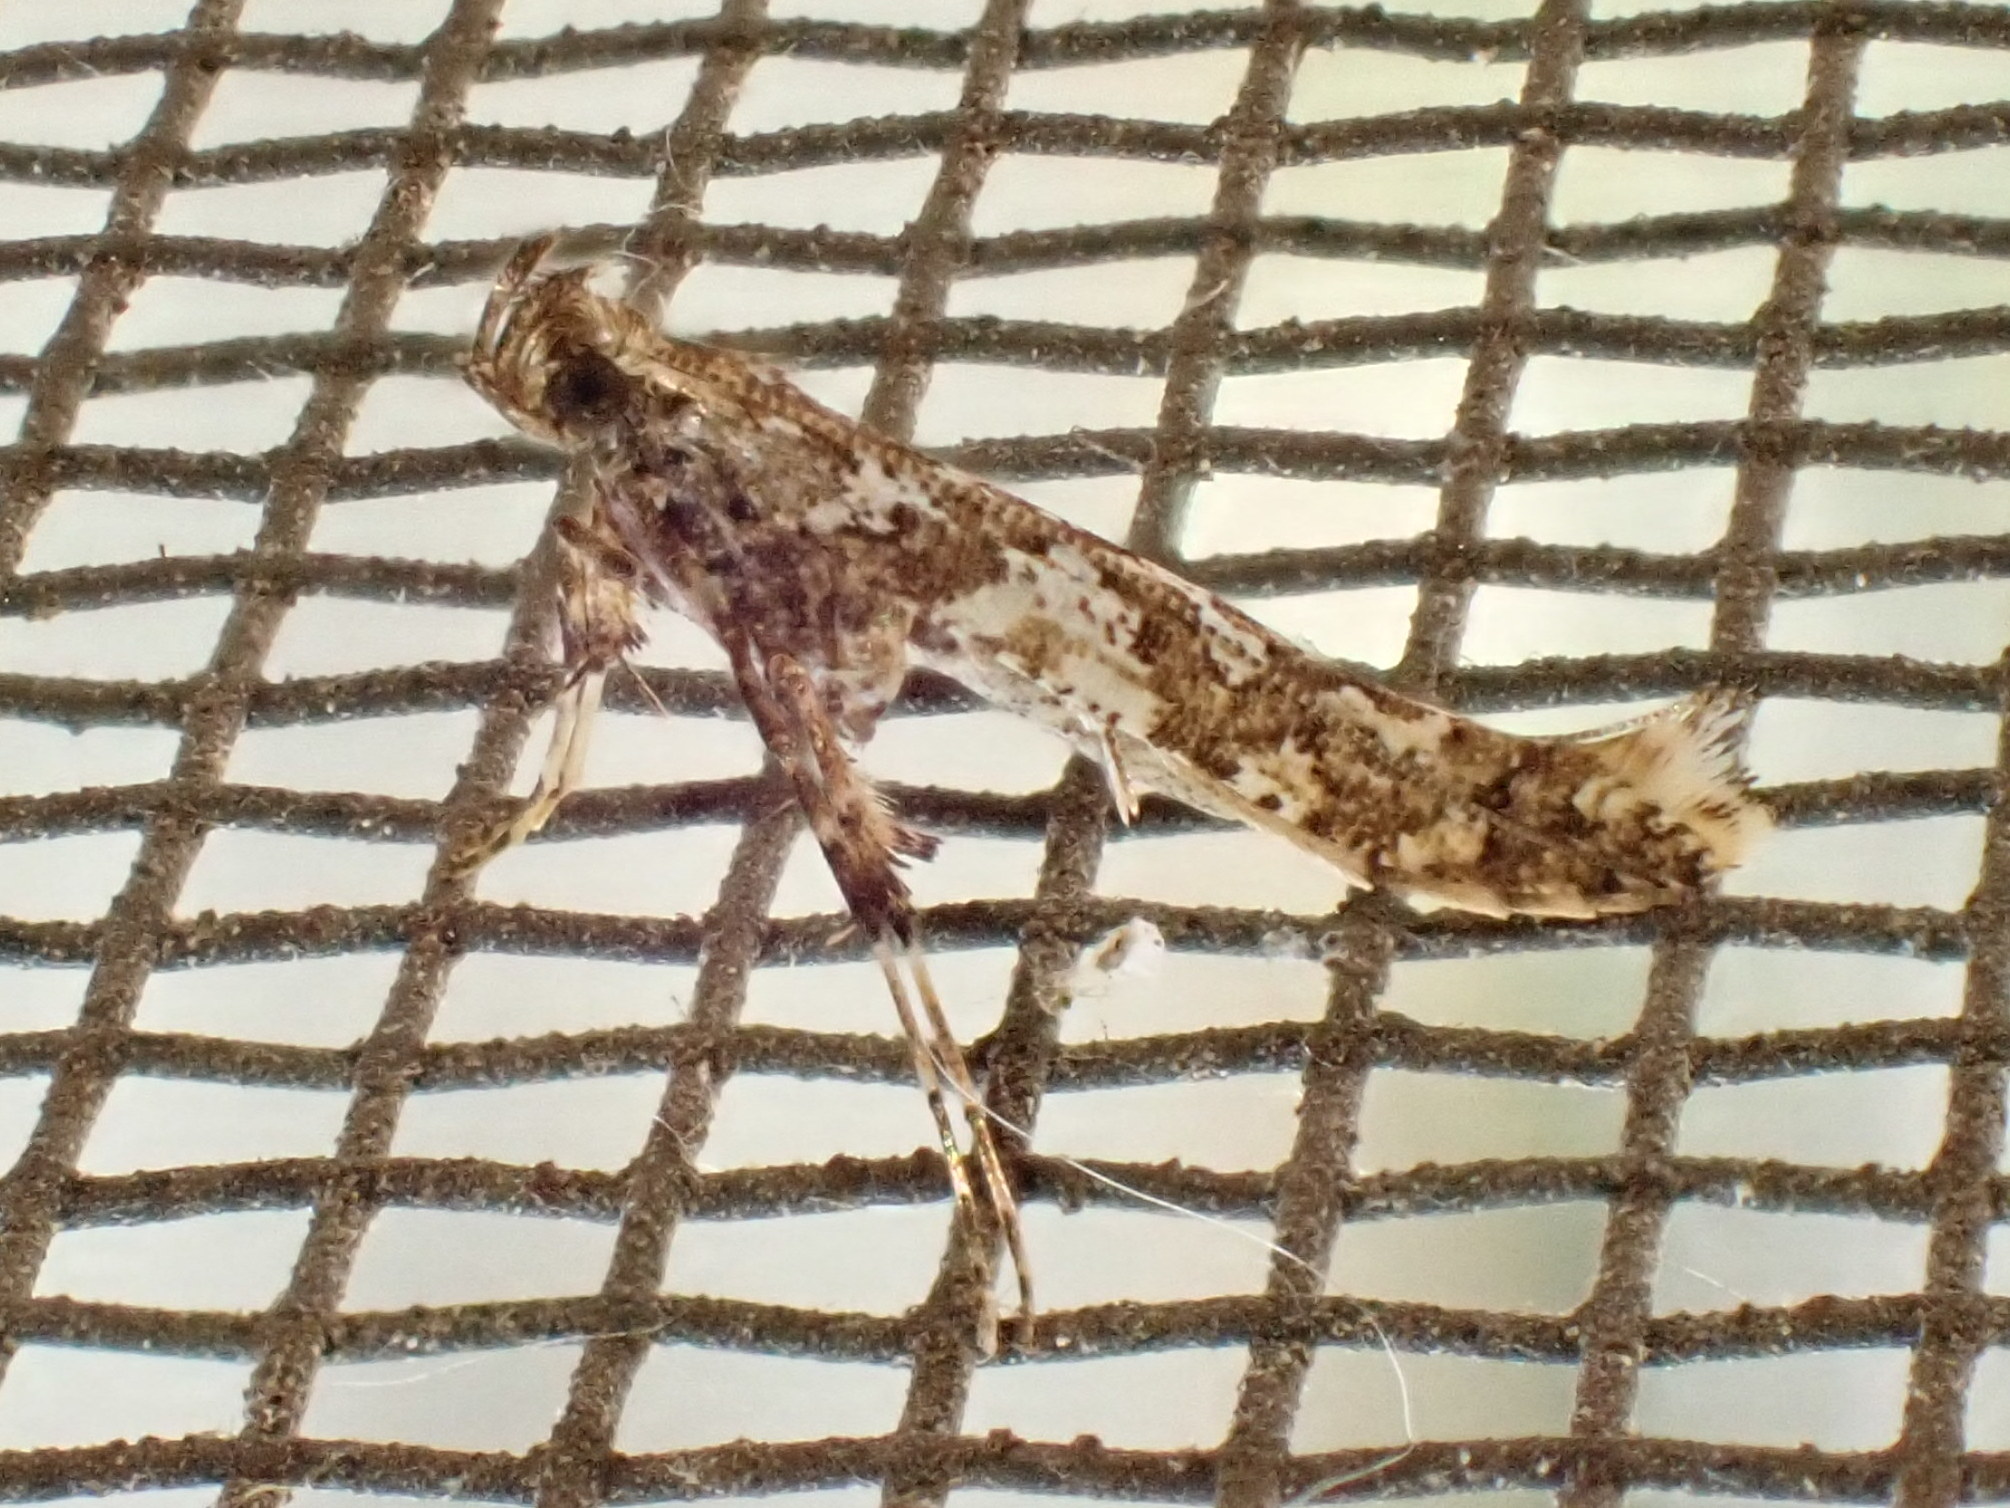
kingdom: Animalia
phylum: Arthropoda
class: Insecta
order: Lepidoptera
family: Gracillariidae
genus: Caloptilia
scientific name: Caloptilia serotinella
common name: Cherry leafroller moth
